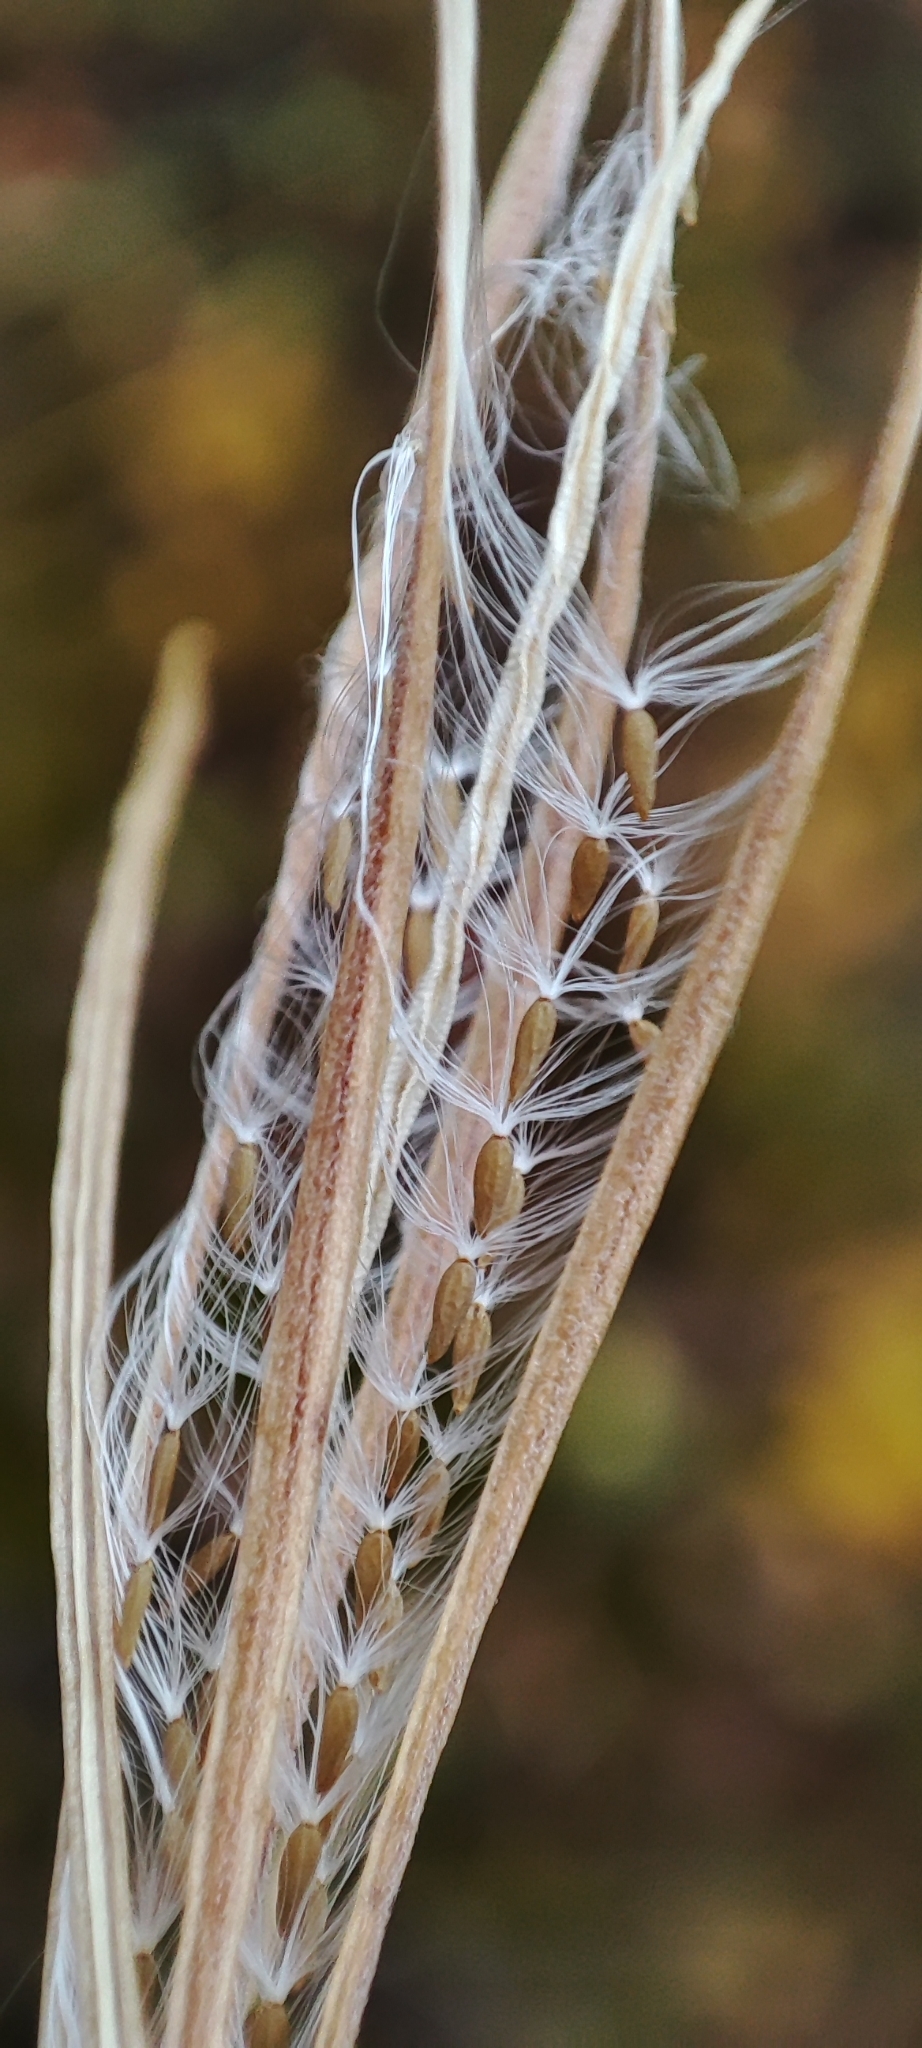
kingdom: Plantae
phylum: Tracheophyta
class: Magnoliopsida
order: Myrtales
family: Onagraceae
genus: Epilobium
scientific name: Epilobium palustre
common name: Marsh willowherb
